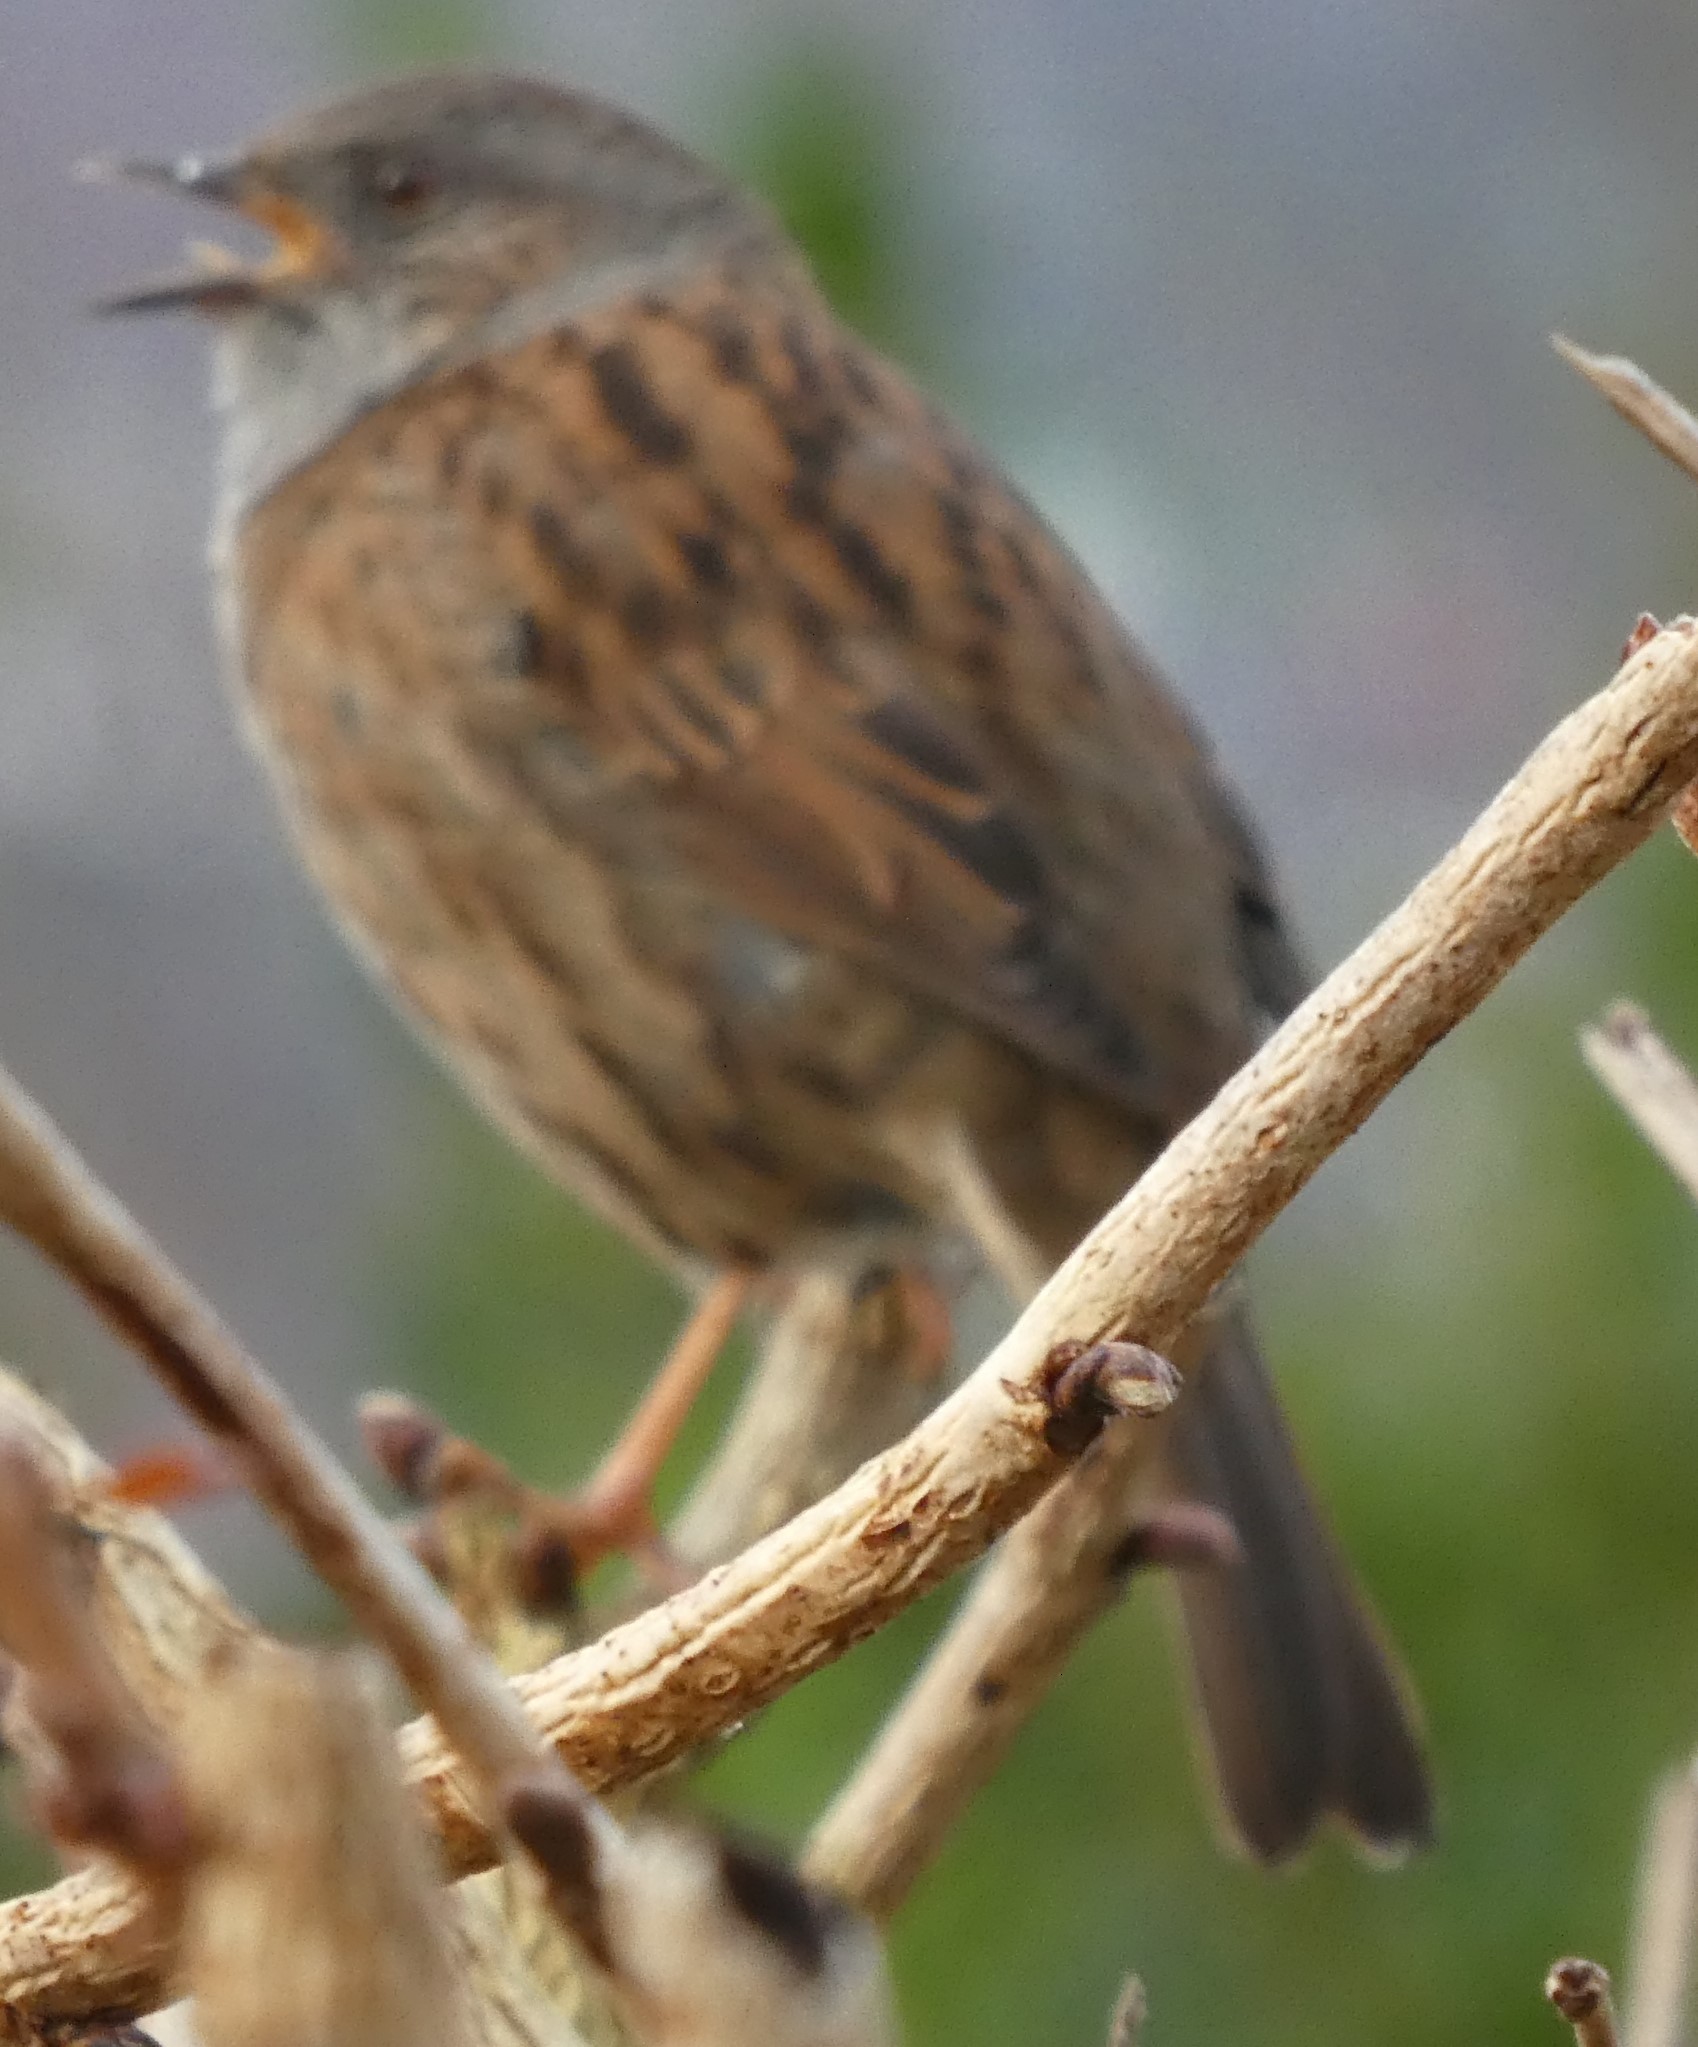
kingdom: Animalia
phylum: Chordata
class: Aves
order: Passeriformes
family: Prunellidae
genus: Prunella
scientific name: Prunella modularis
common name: Dunnock
